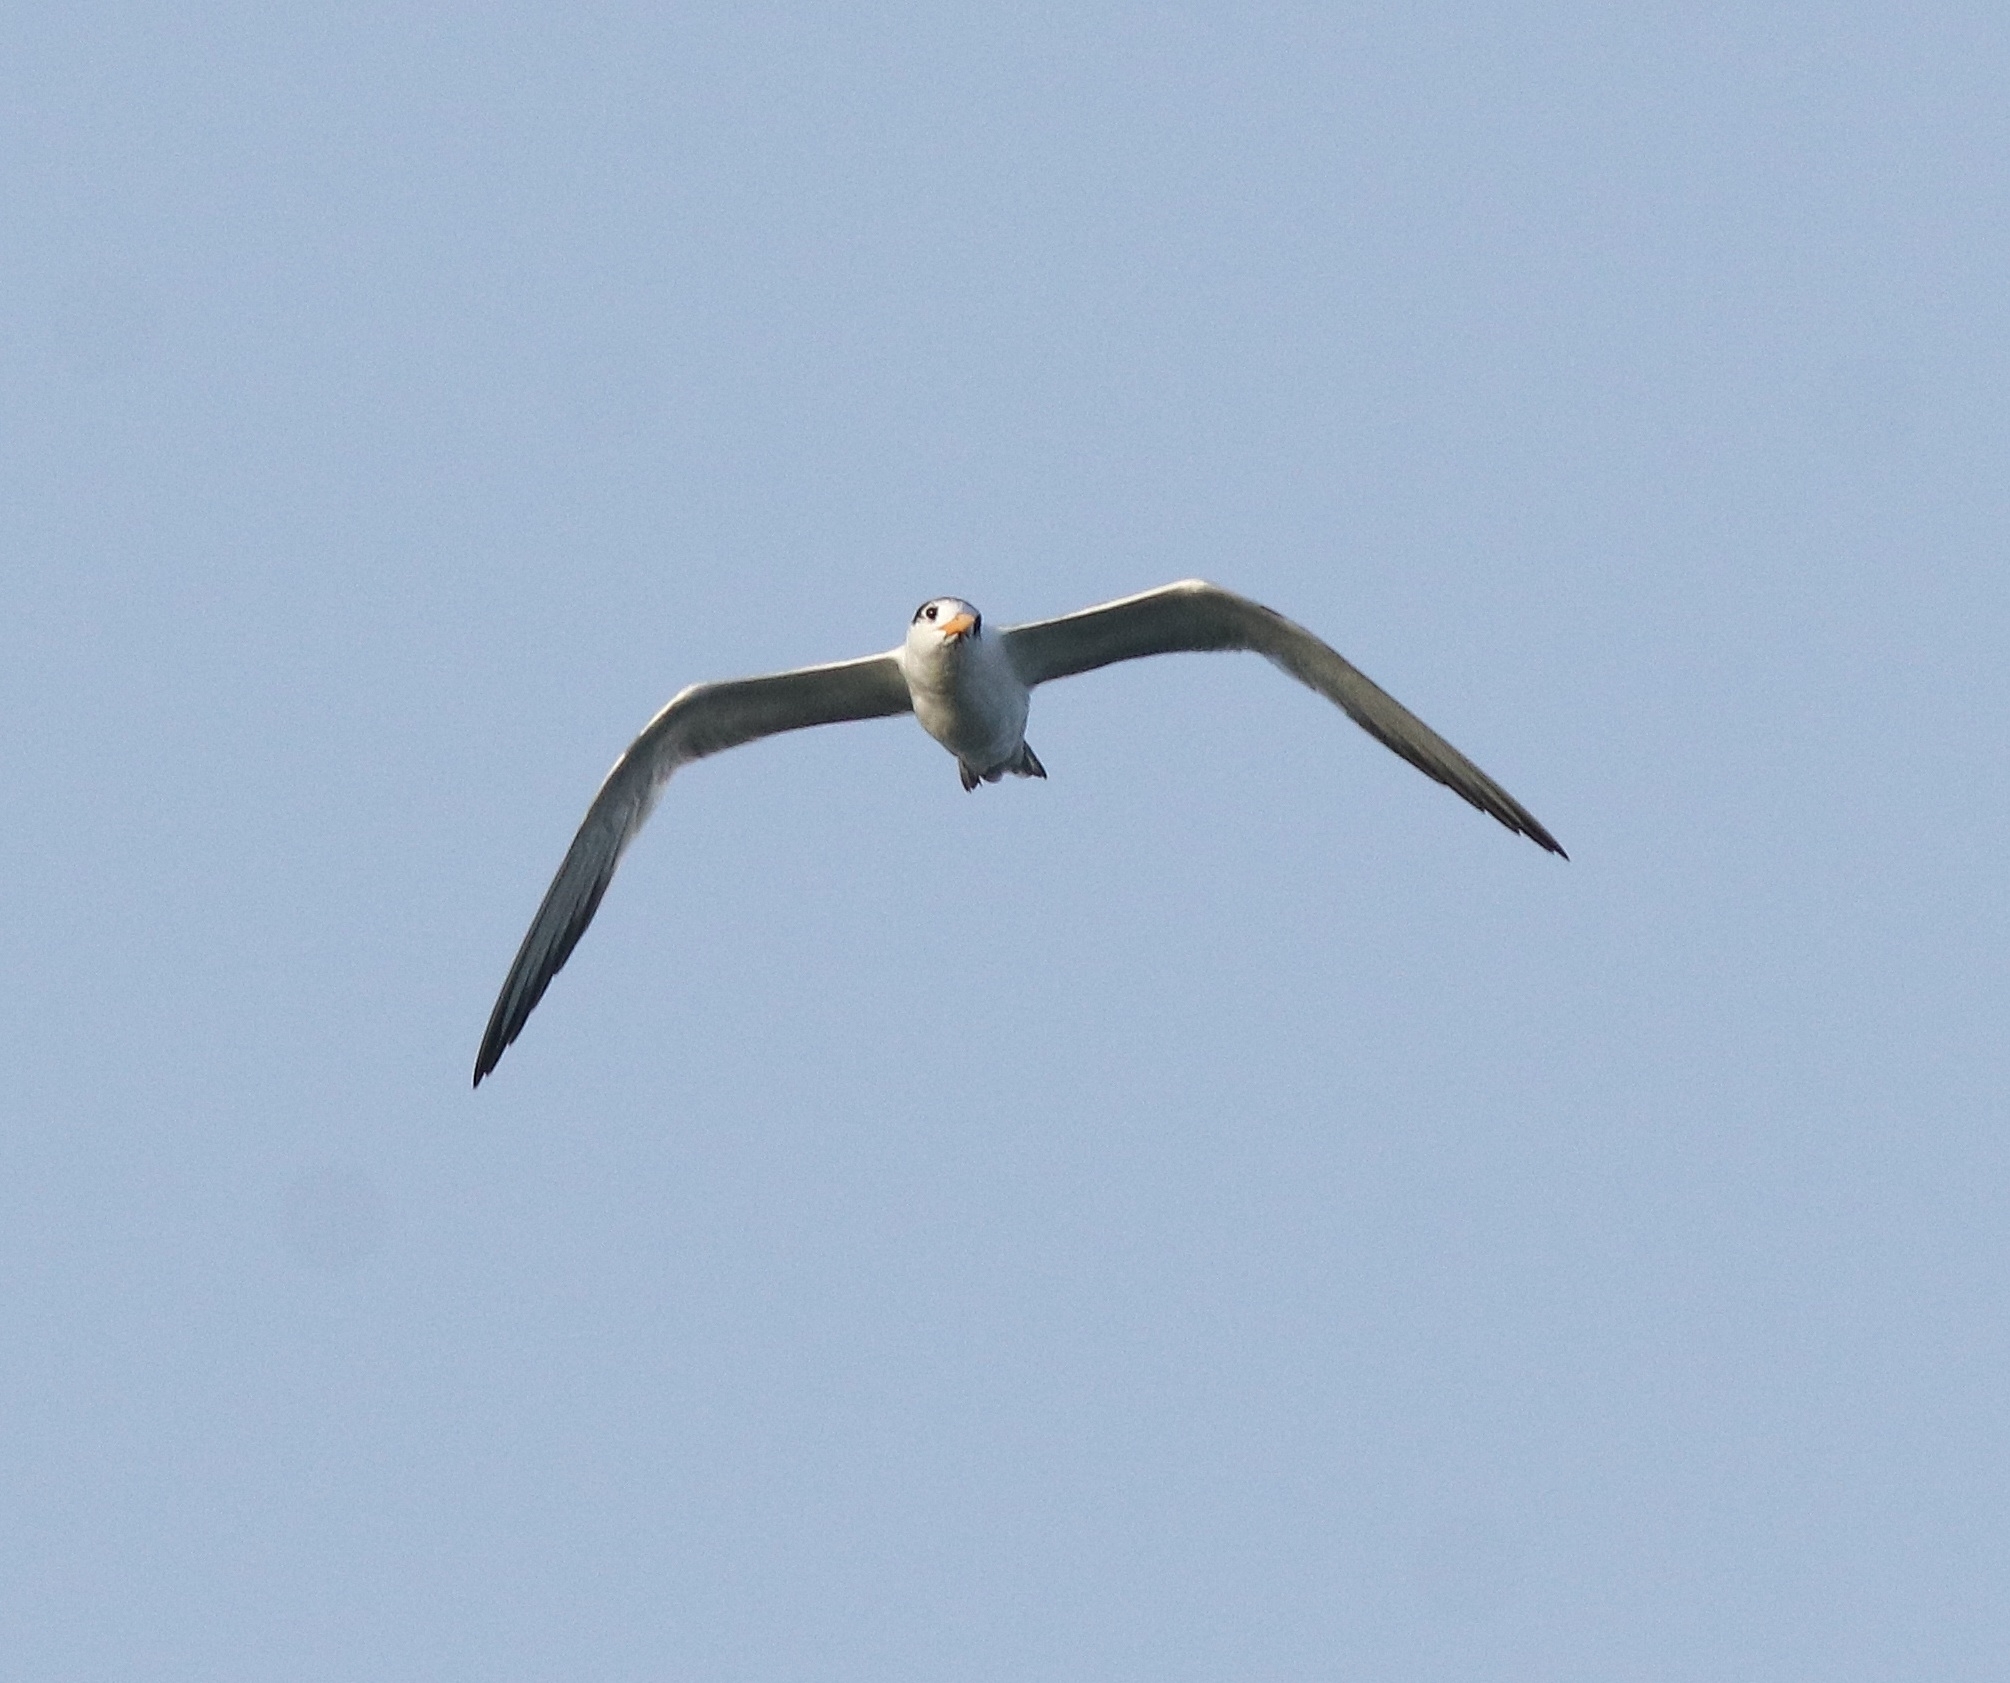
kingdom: Animalia
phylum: Chordata
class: Aves
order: Charadriiformes
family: Laridae
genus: Thalasseus
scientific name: Thalasseus bergii
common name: Greater crested tern
